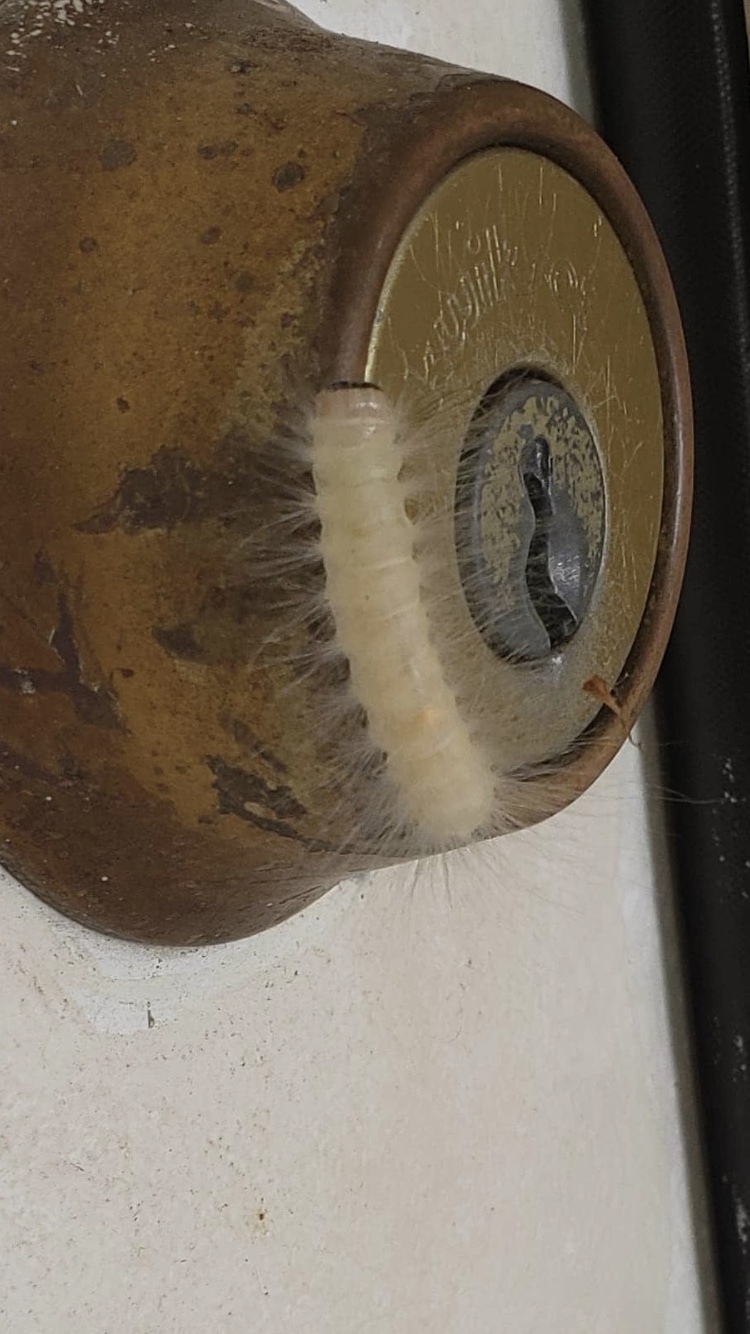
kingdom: Animalia
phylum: Arthropoda
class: Insecta
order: Lepidoptera
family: Noctuidae
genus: Charadra
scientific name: Charadra deridens
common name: Marbled tuffet
